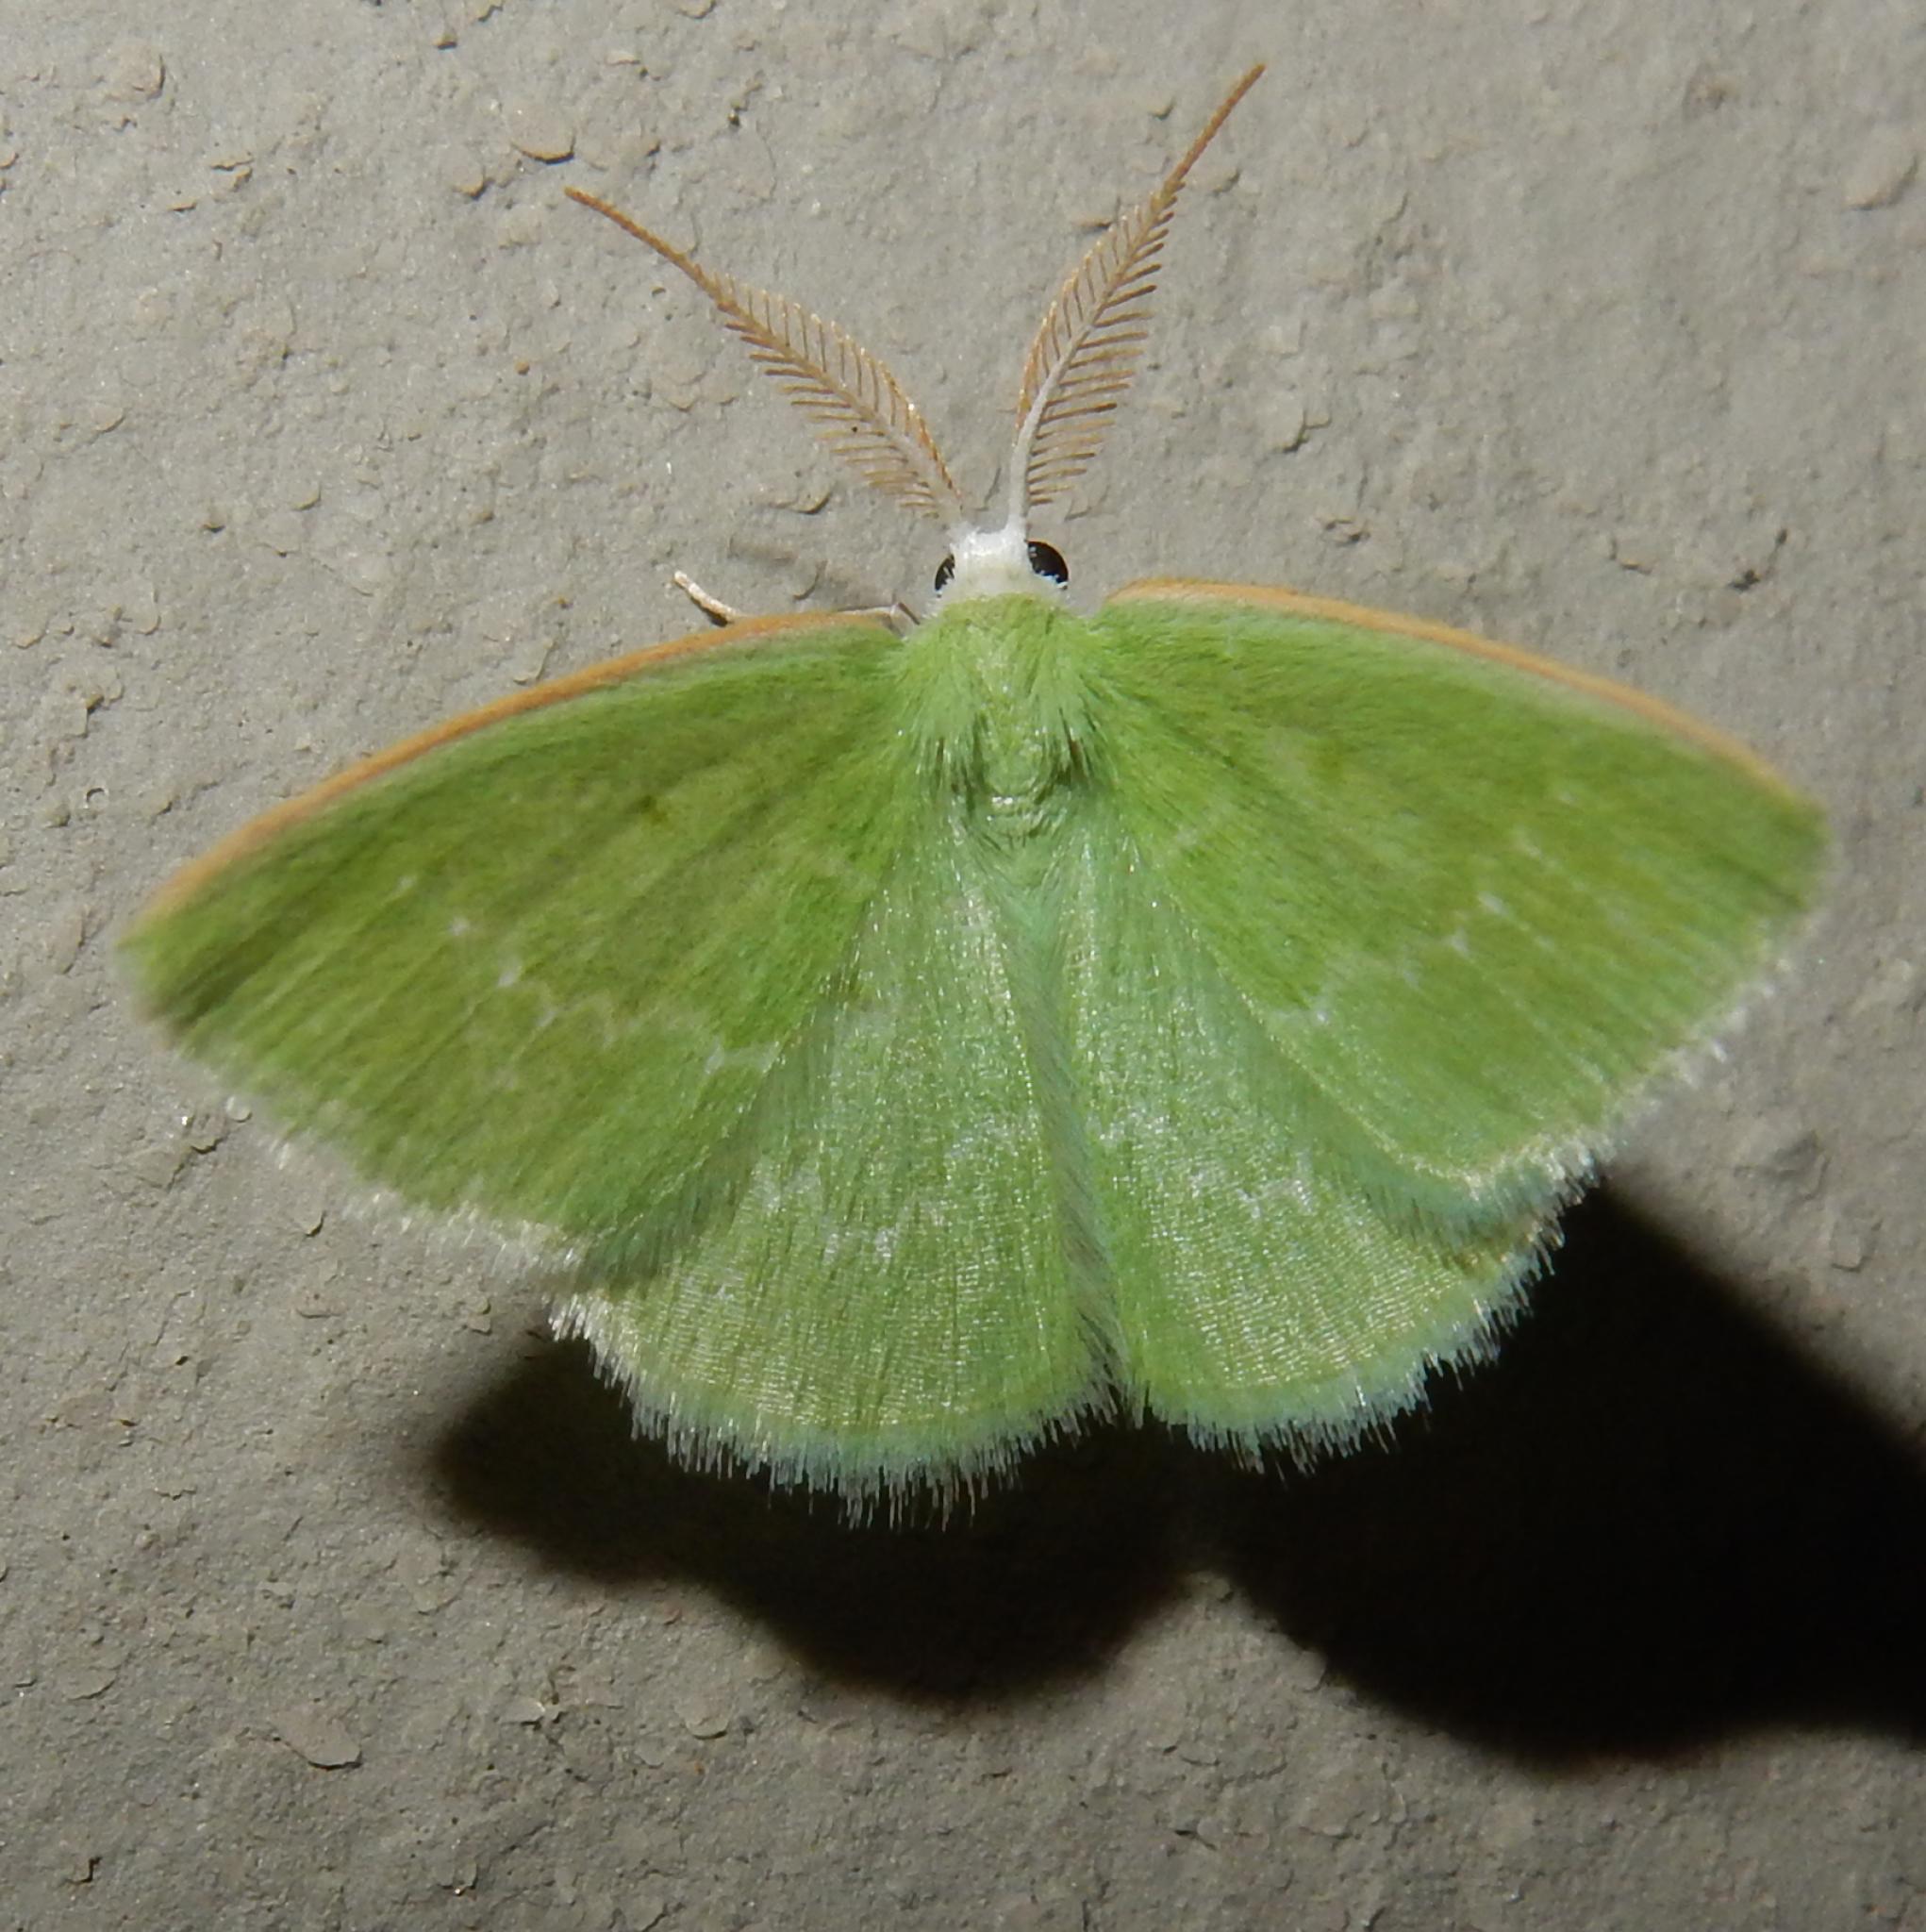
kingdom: Animalia
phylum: Arthropoda
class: Insecta
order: Lepidoptera
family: Geometridae
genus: Comostolopsis
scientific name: Comostolopsis germana
